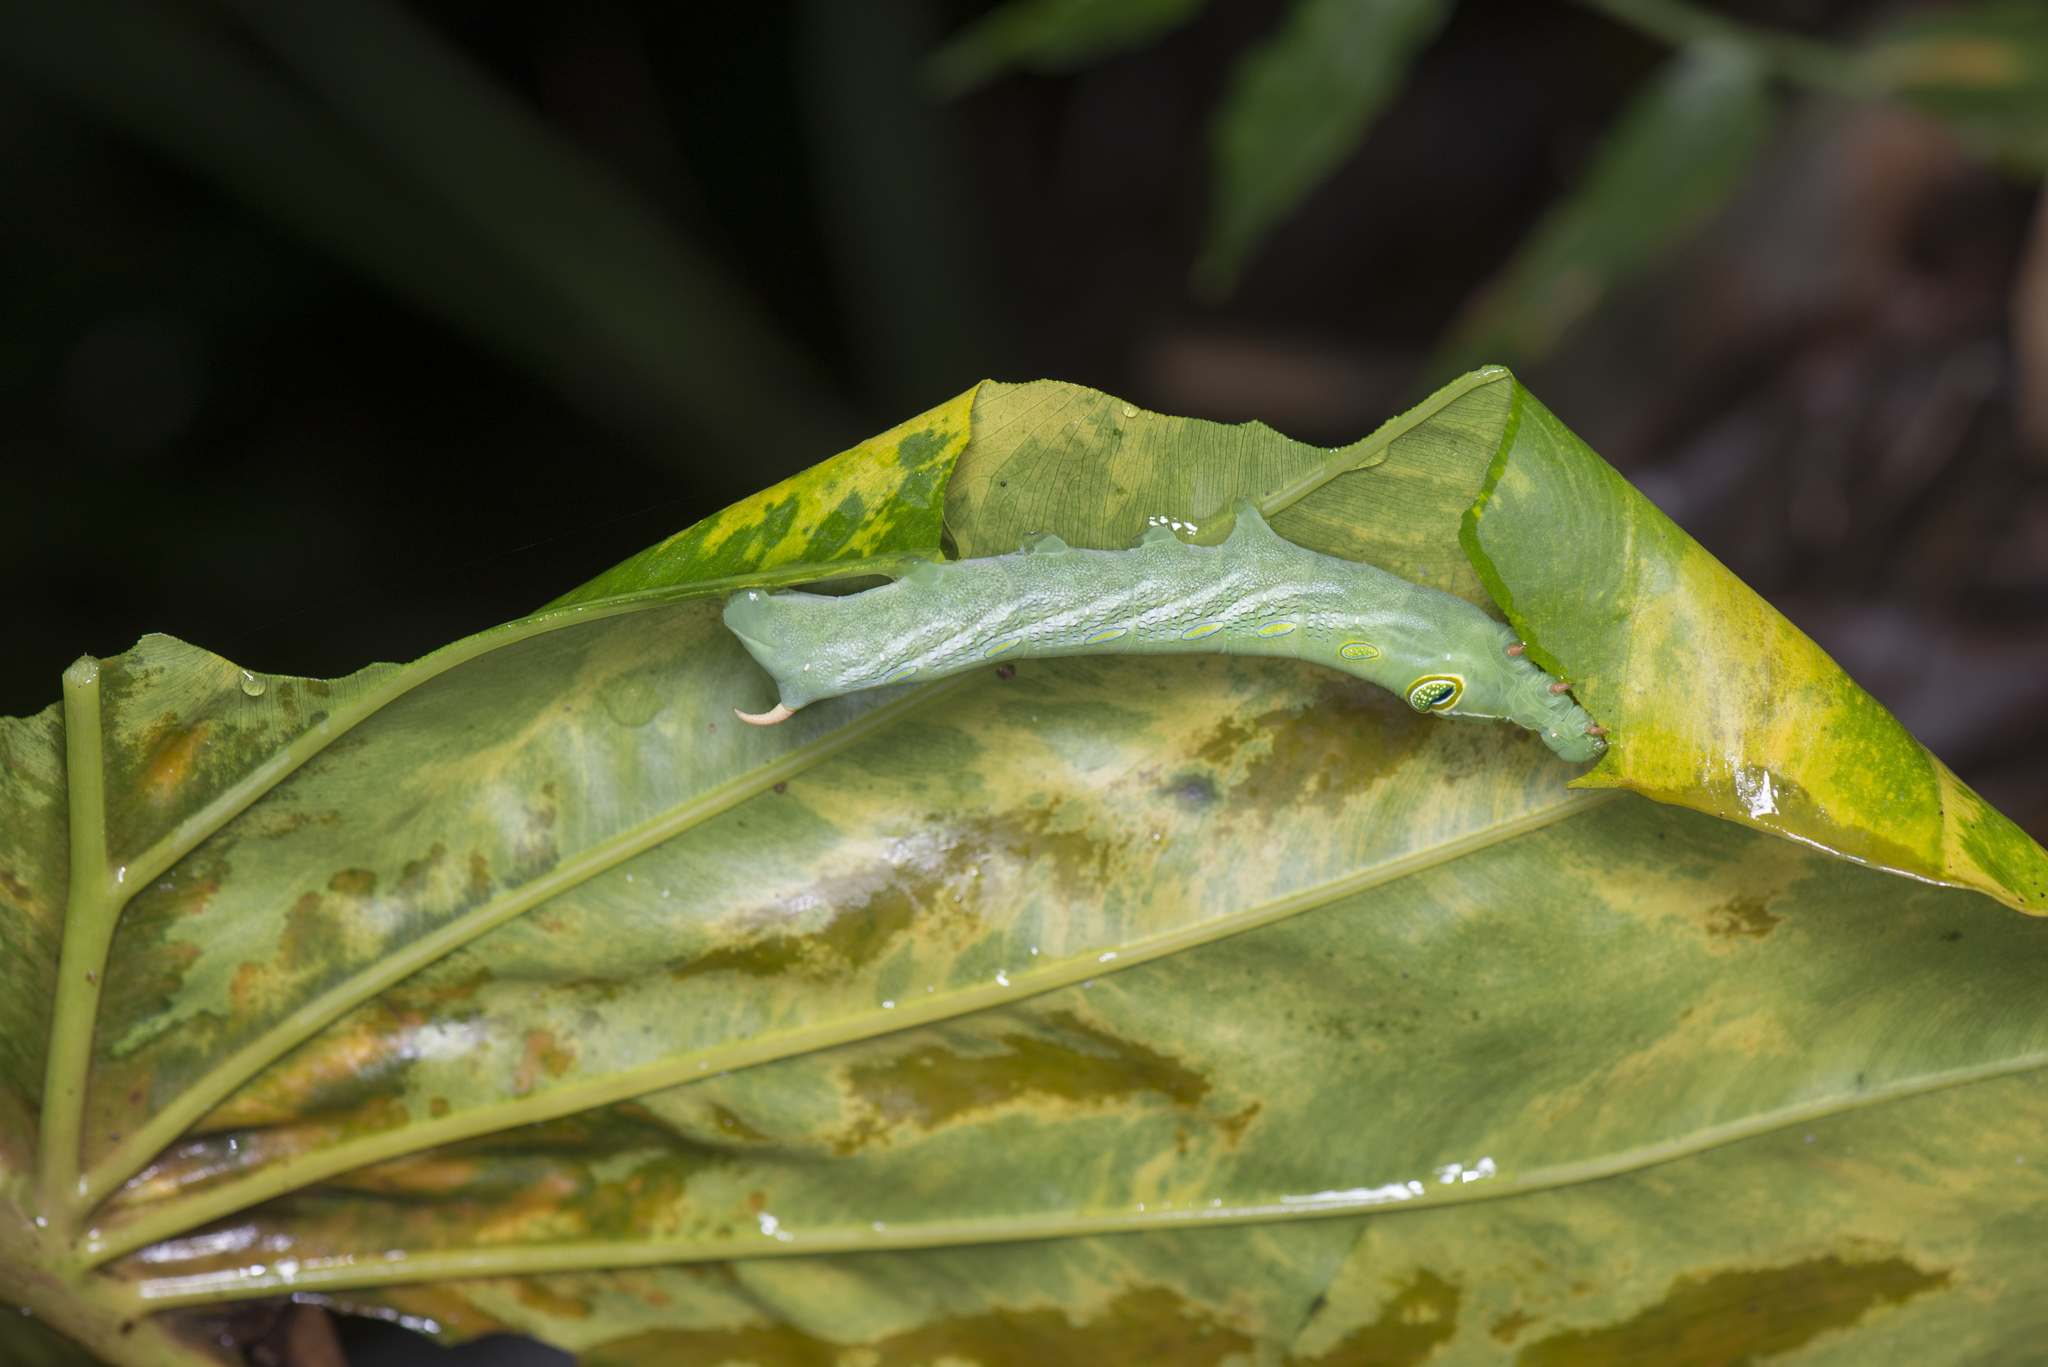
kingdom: Animalia
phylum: Arthropoda
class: Insecta
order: Lepidoptera
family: Sphingidae
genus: Pergesa
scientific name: Pergesa acteus
